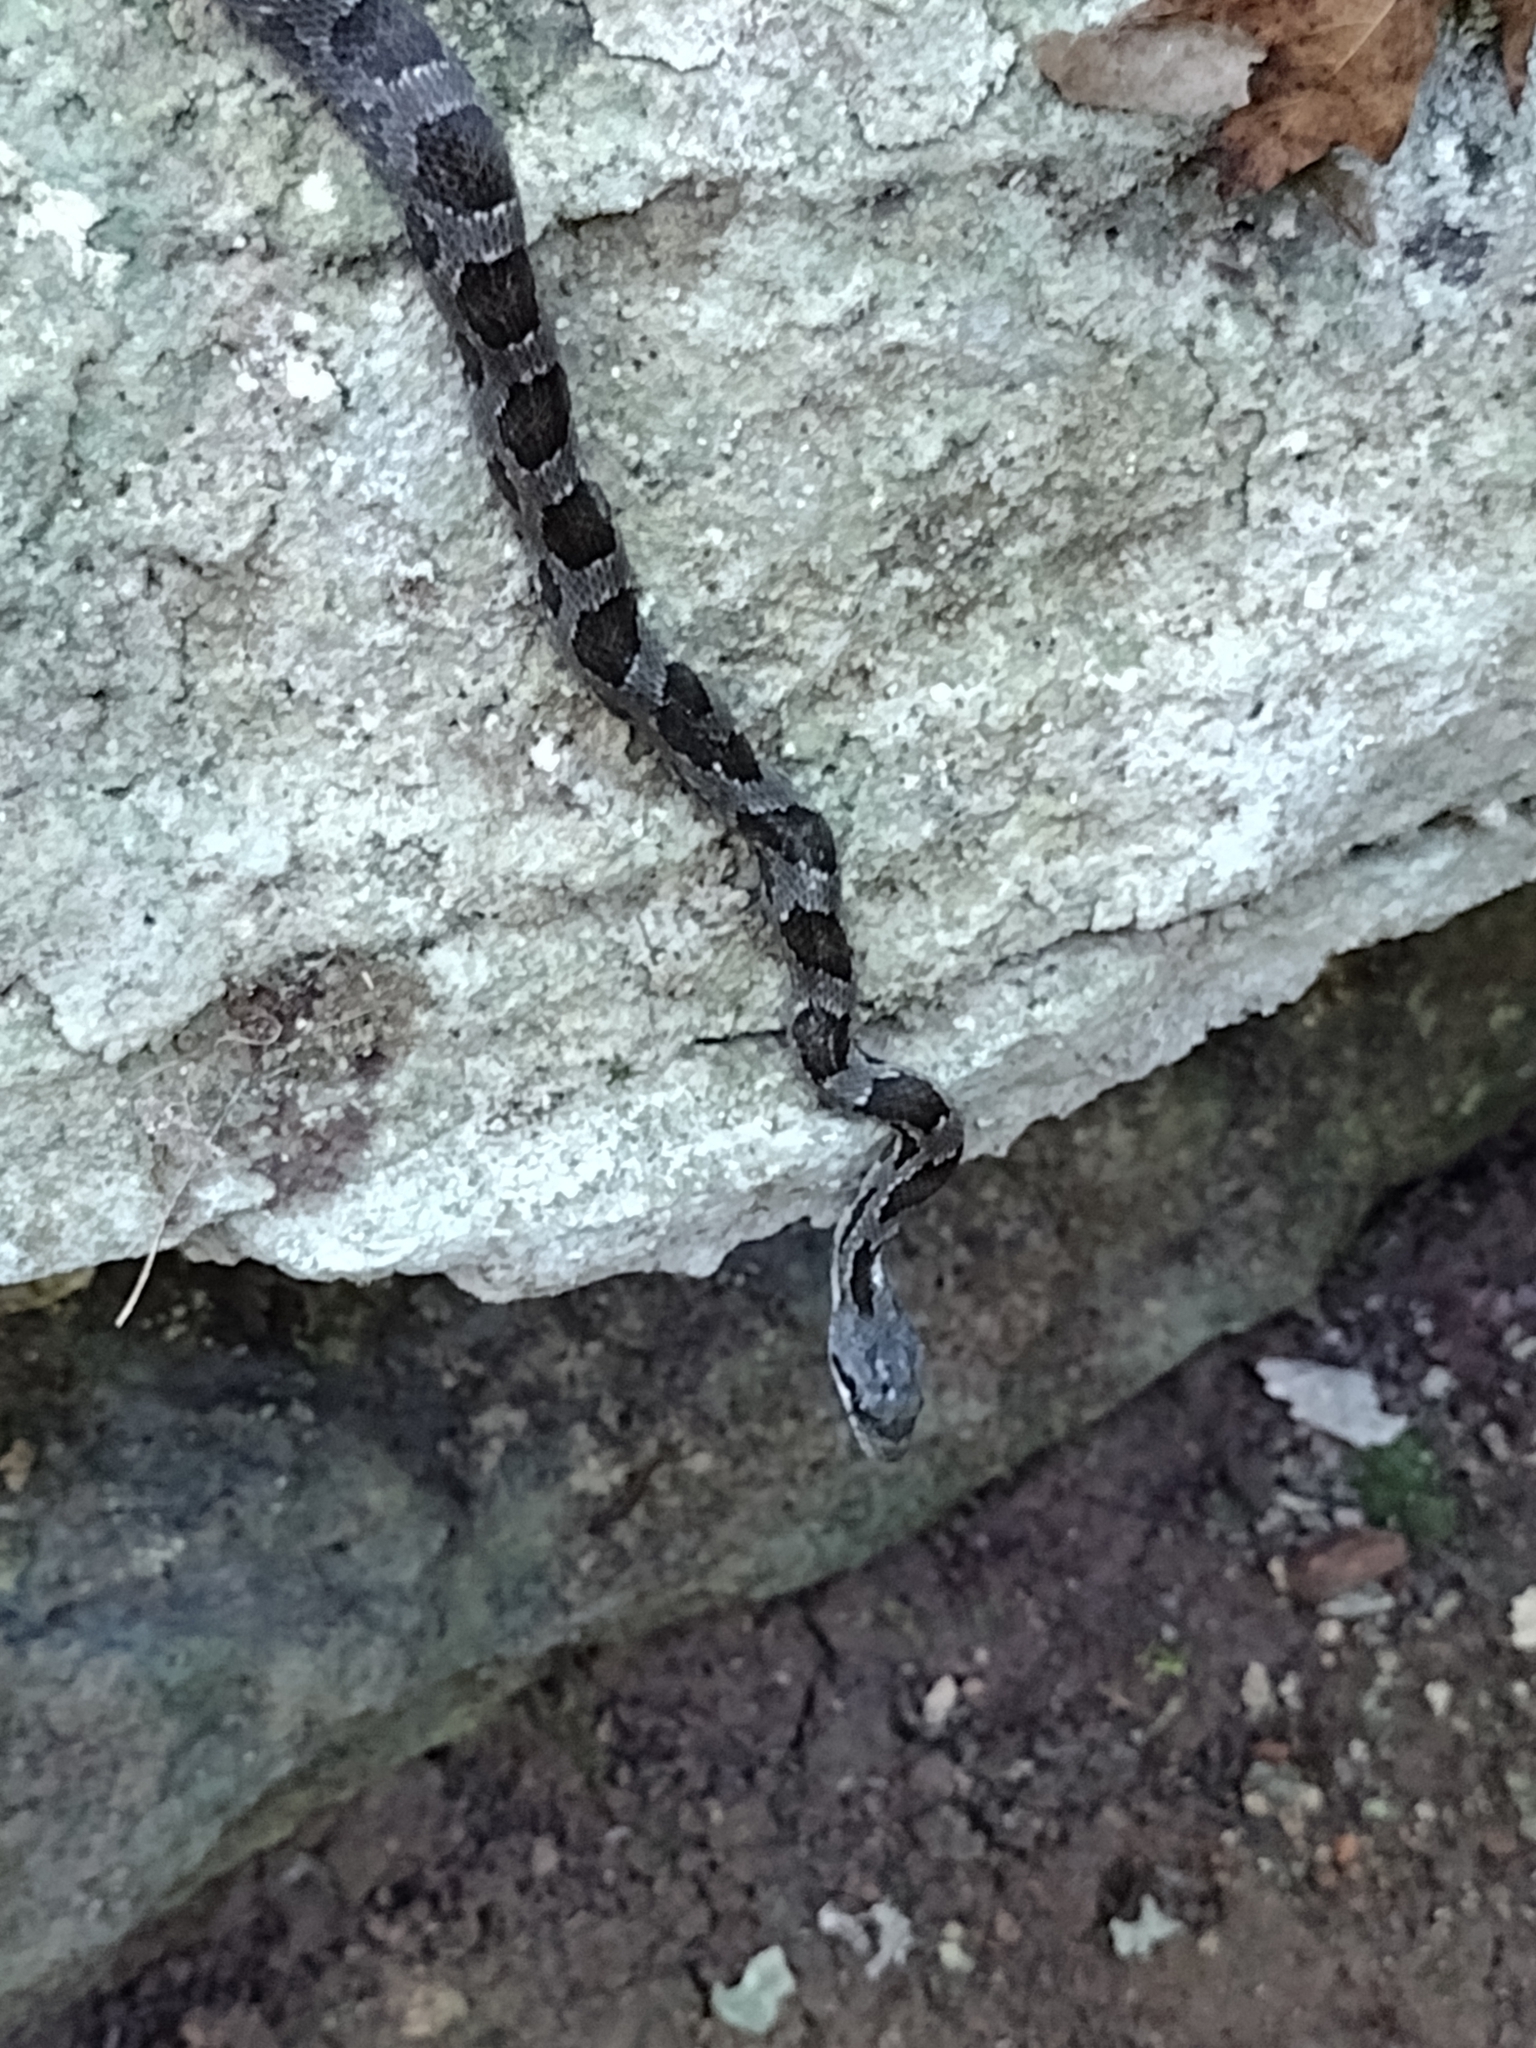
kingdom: Animalia
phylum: Chordata
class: Squamata
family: Colubridae
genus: Pantherophis
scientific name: Pantherophis obsoletus
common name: Black rat snake
